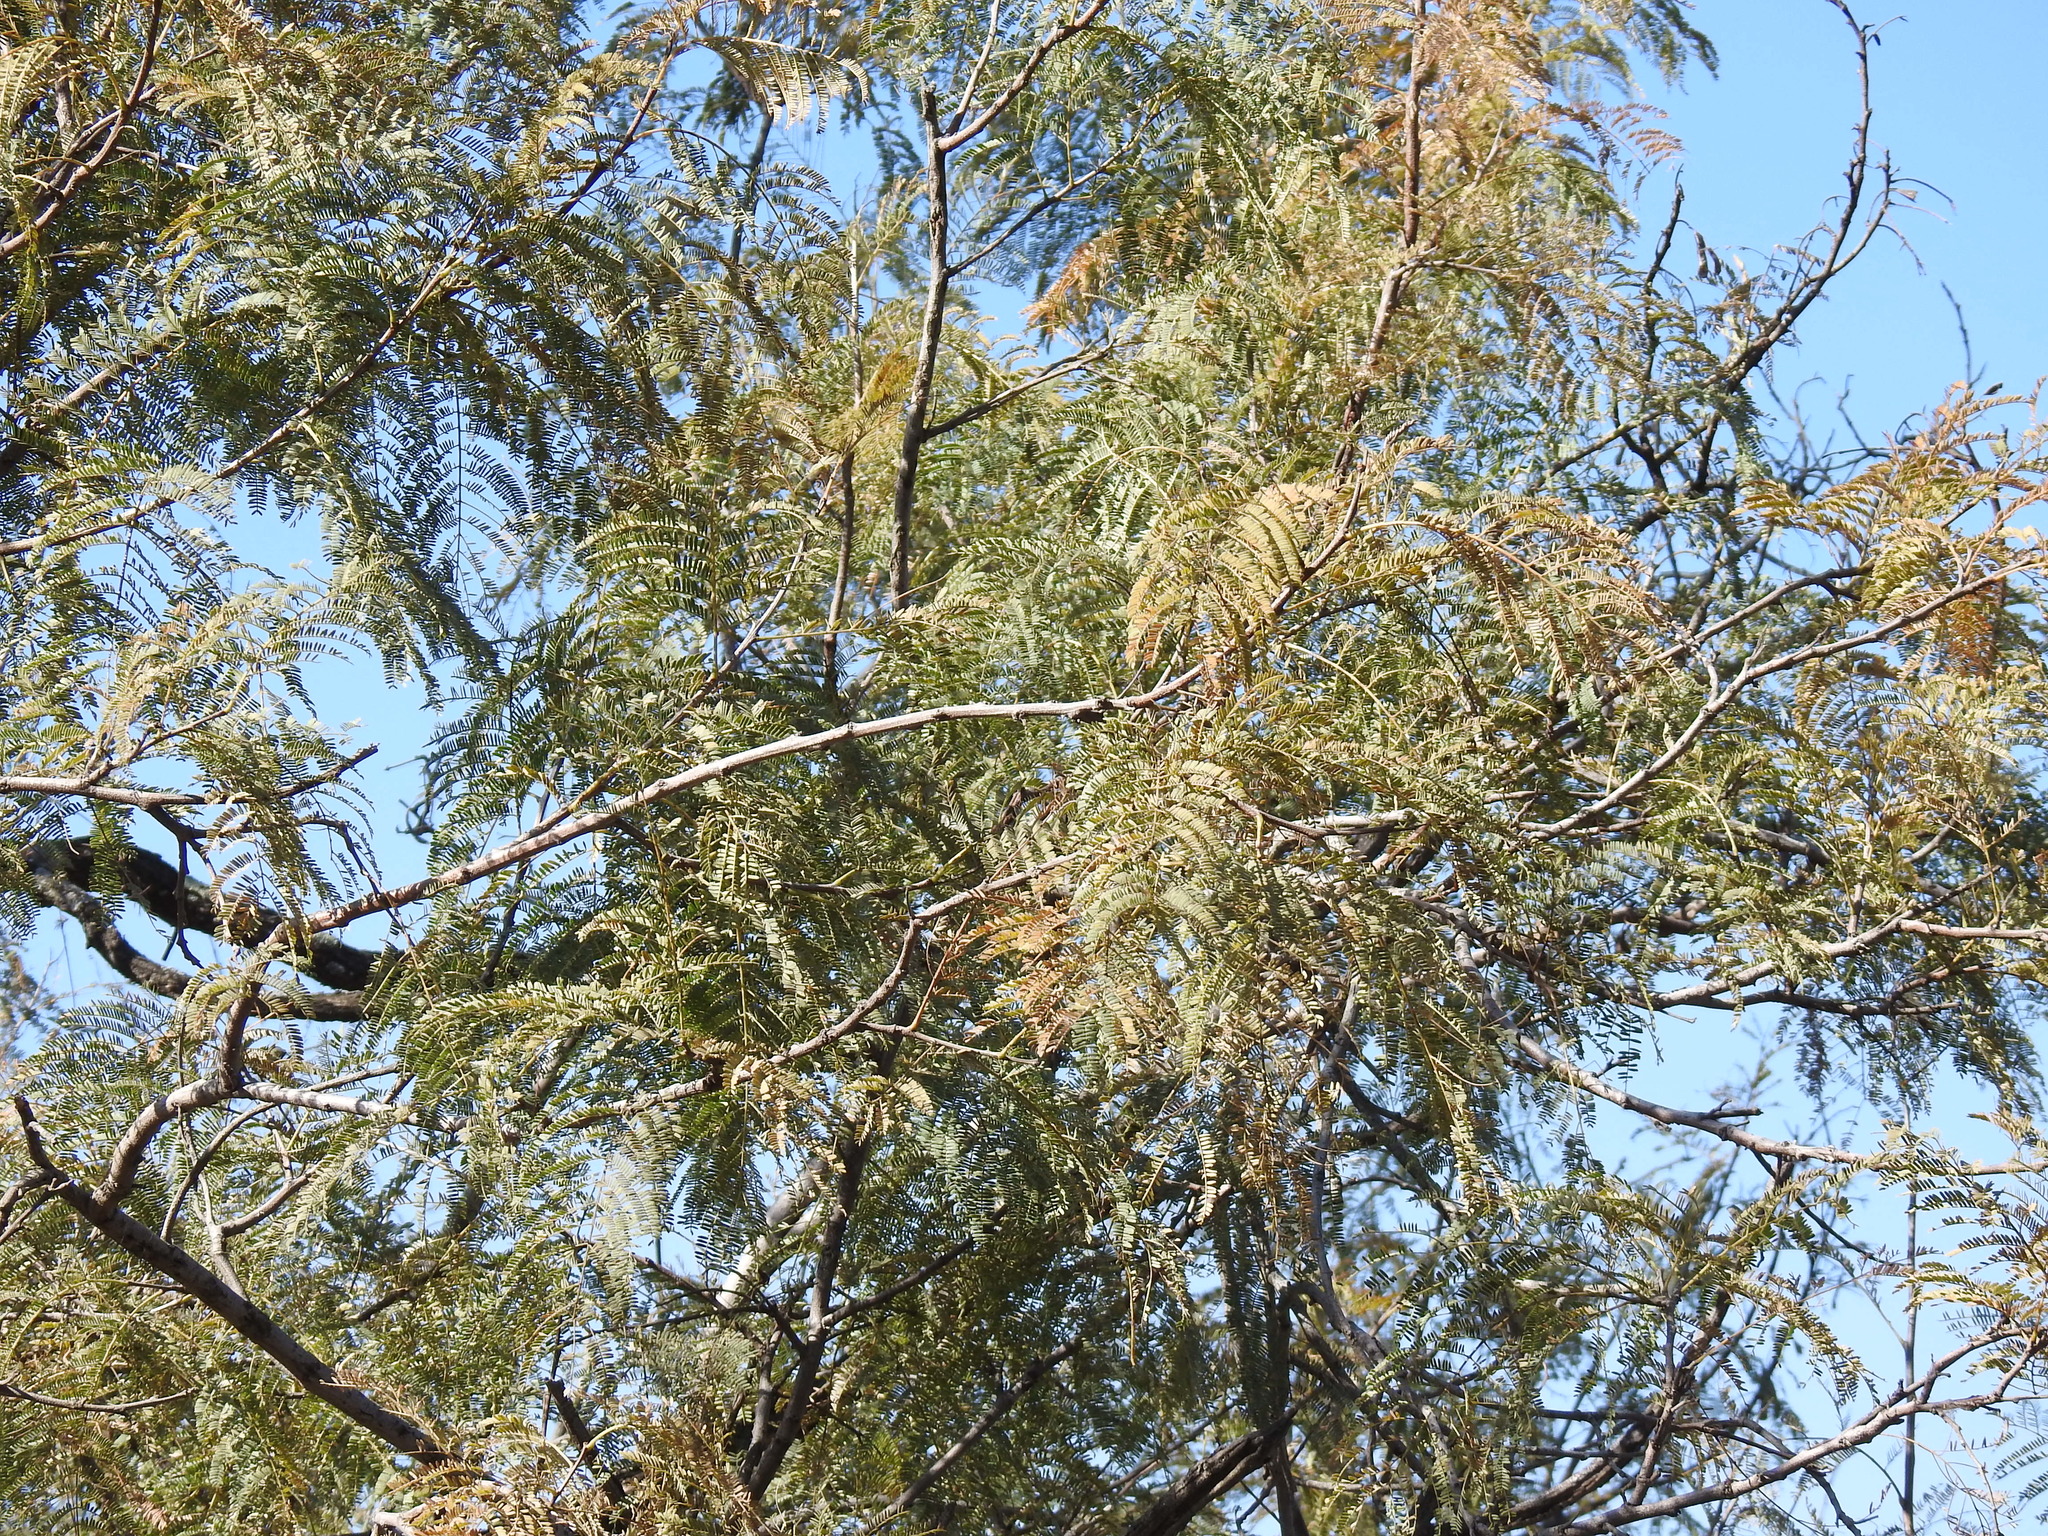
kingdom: Plantae
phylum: Tracheophyta
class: Magnoliopsida
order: Fabales
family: Fabaceae
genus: Peltophorum
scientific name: Peltophorum africanum
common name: African black wattle
